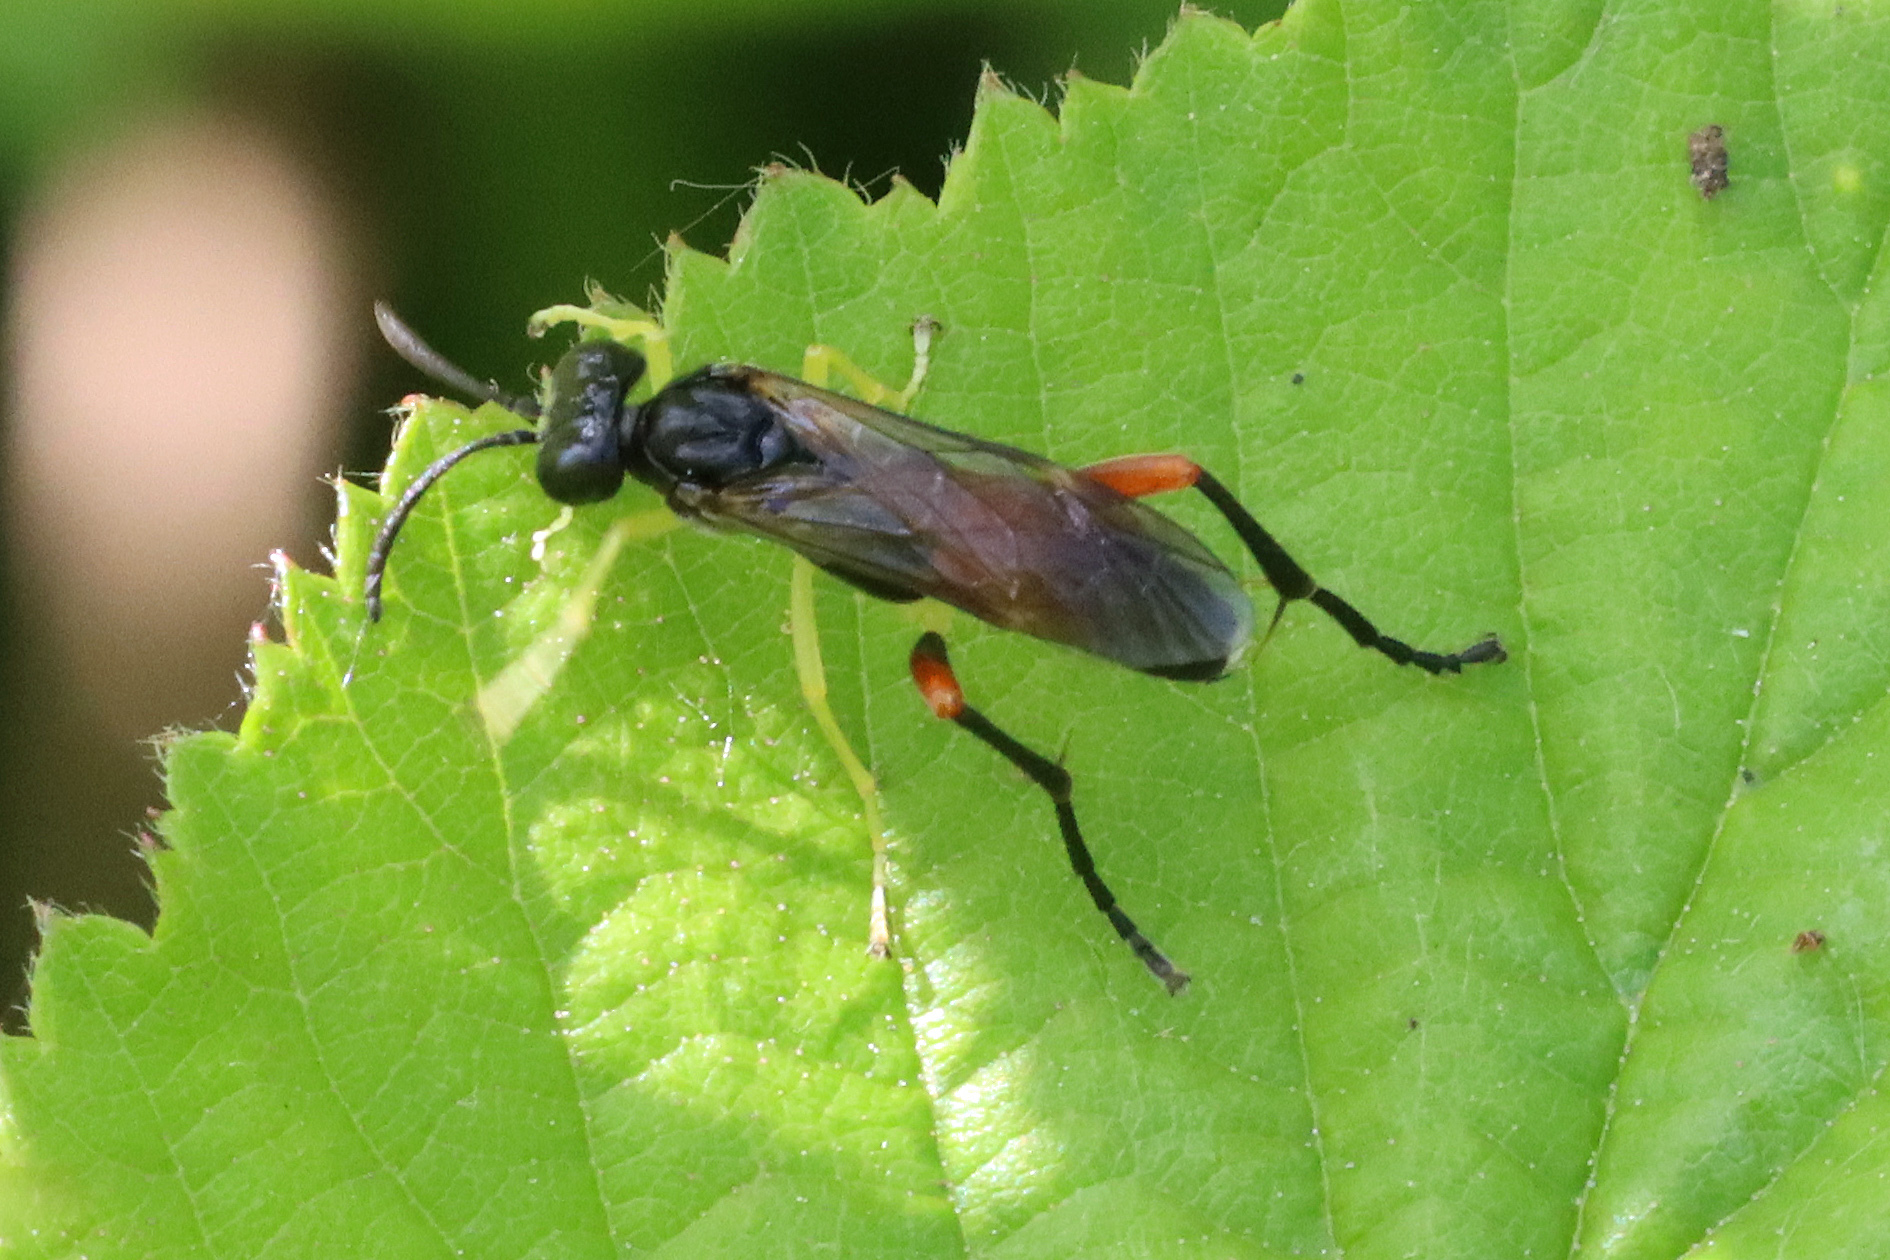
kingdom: Animalia
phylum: Arthropoda
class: Insecta
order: Hymenoptera
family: Tenthredinidae
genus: Macrophya
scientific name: Macrophya rufipes
